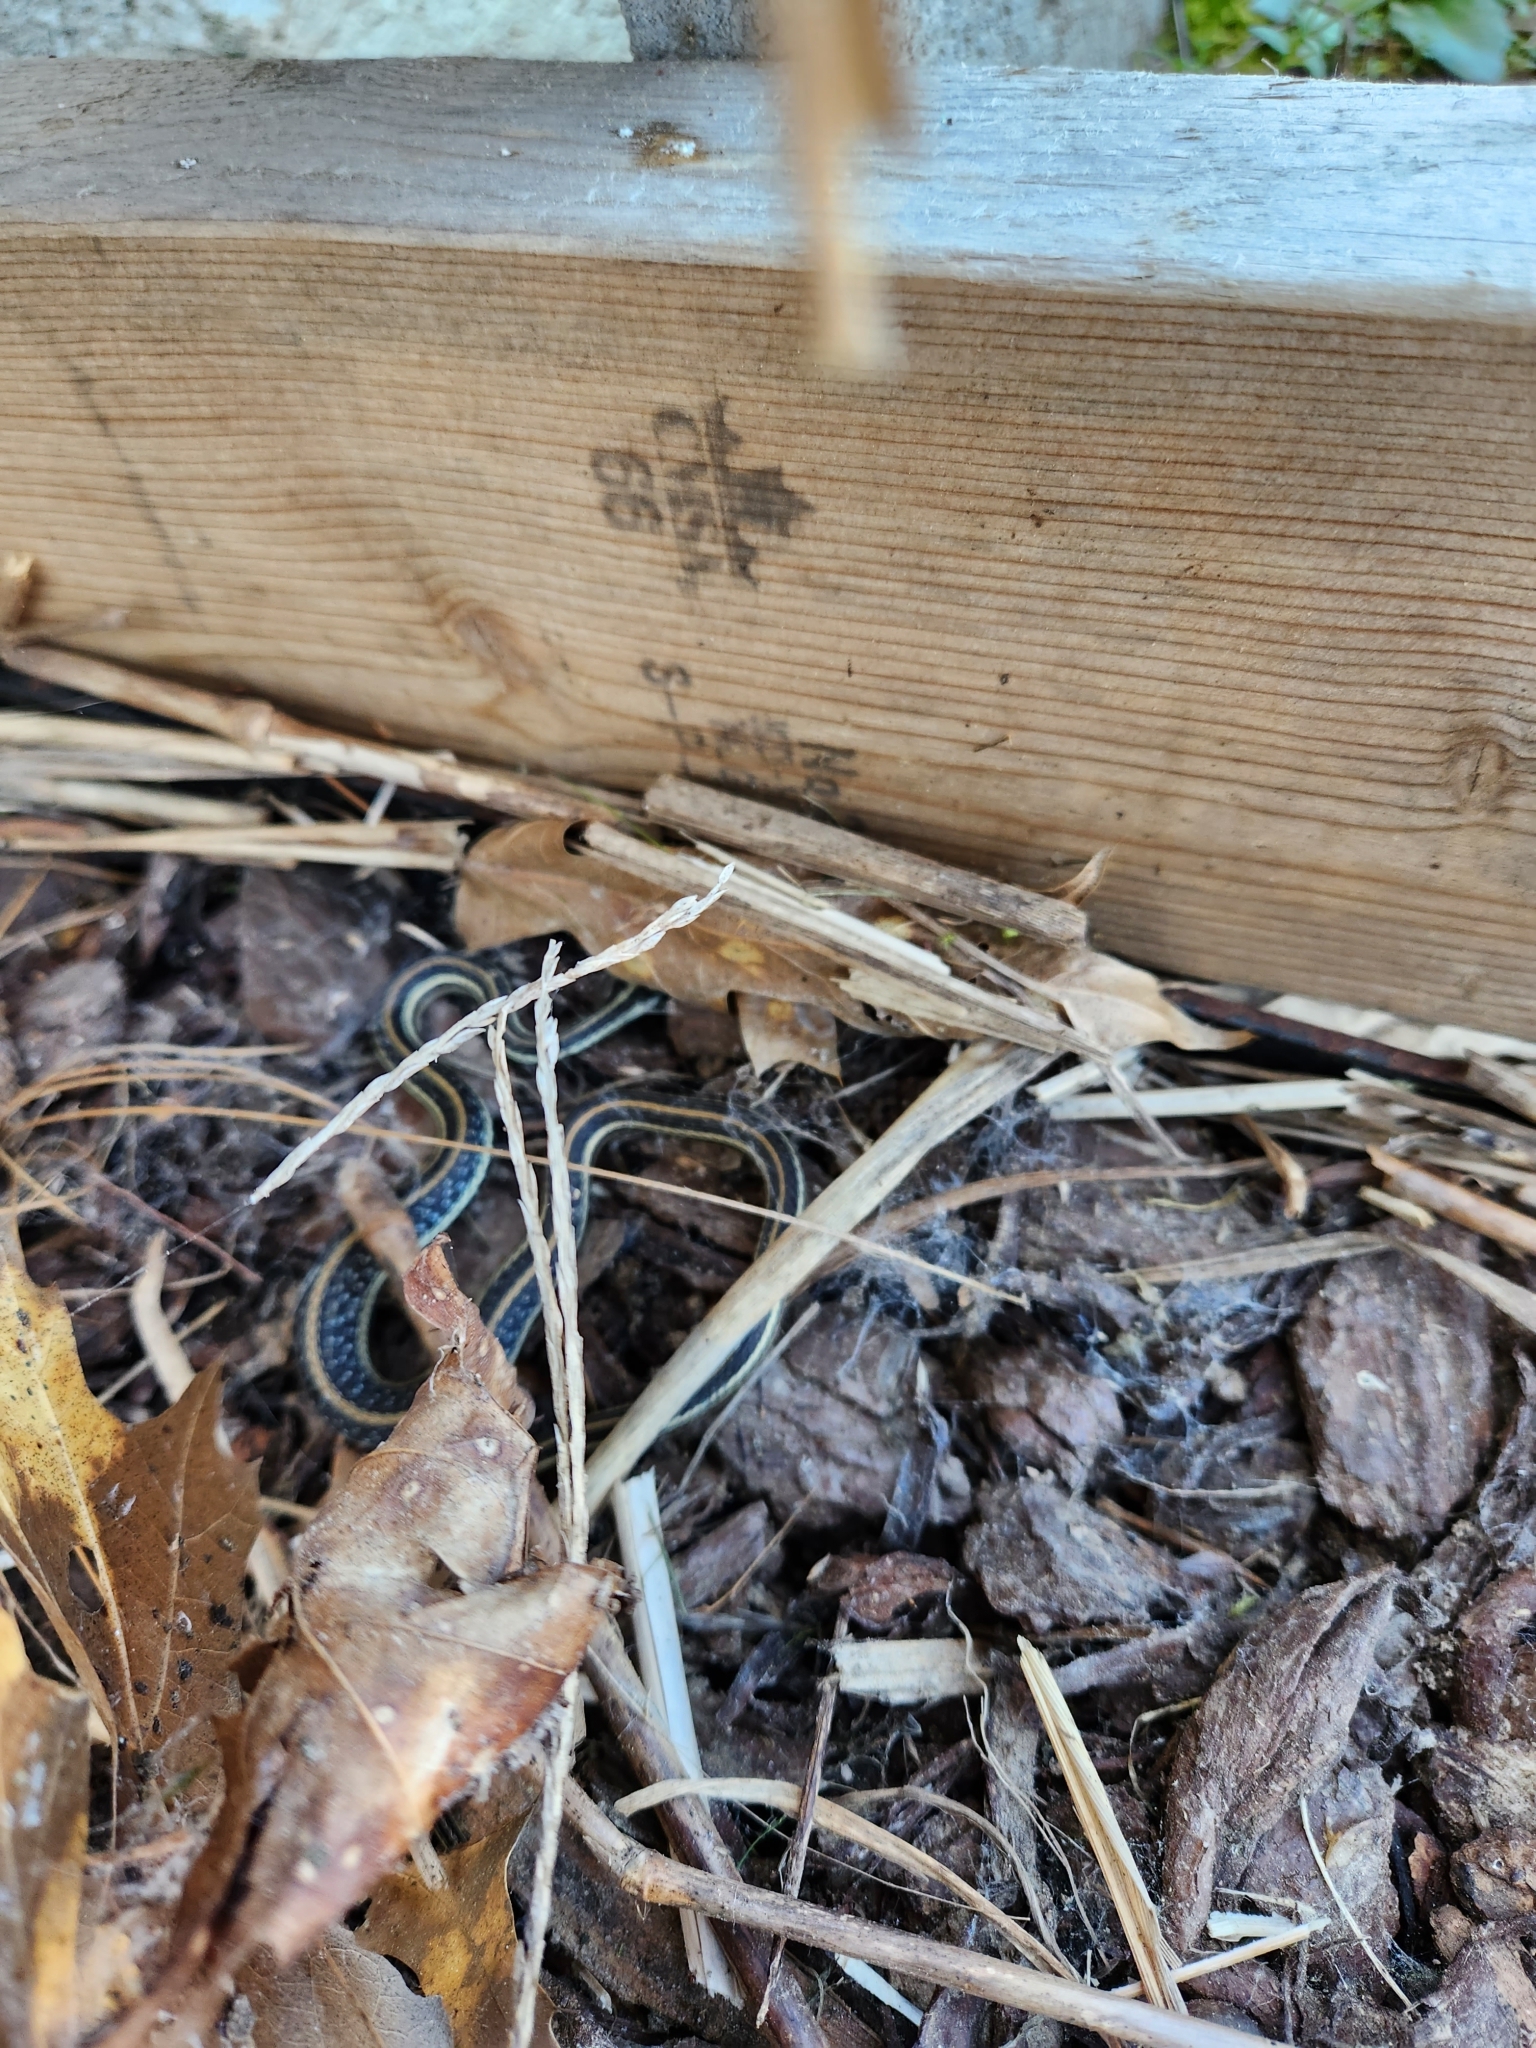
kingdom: Animalia
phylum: Chordata
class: Squamata
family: Colubridae
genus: Thamnophis
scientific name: Thamnophis sirtalis
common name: Common garter snake
